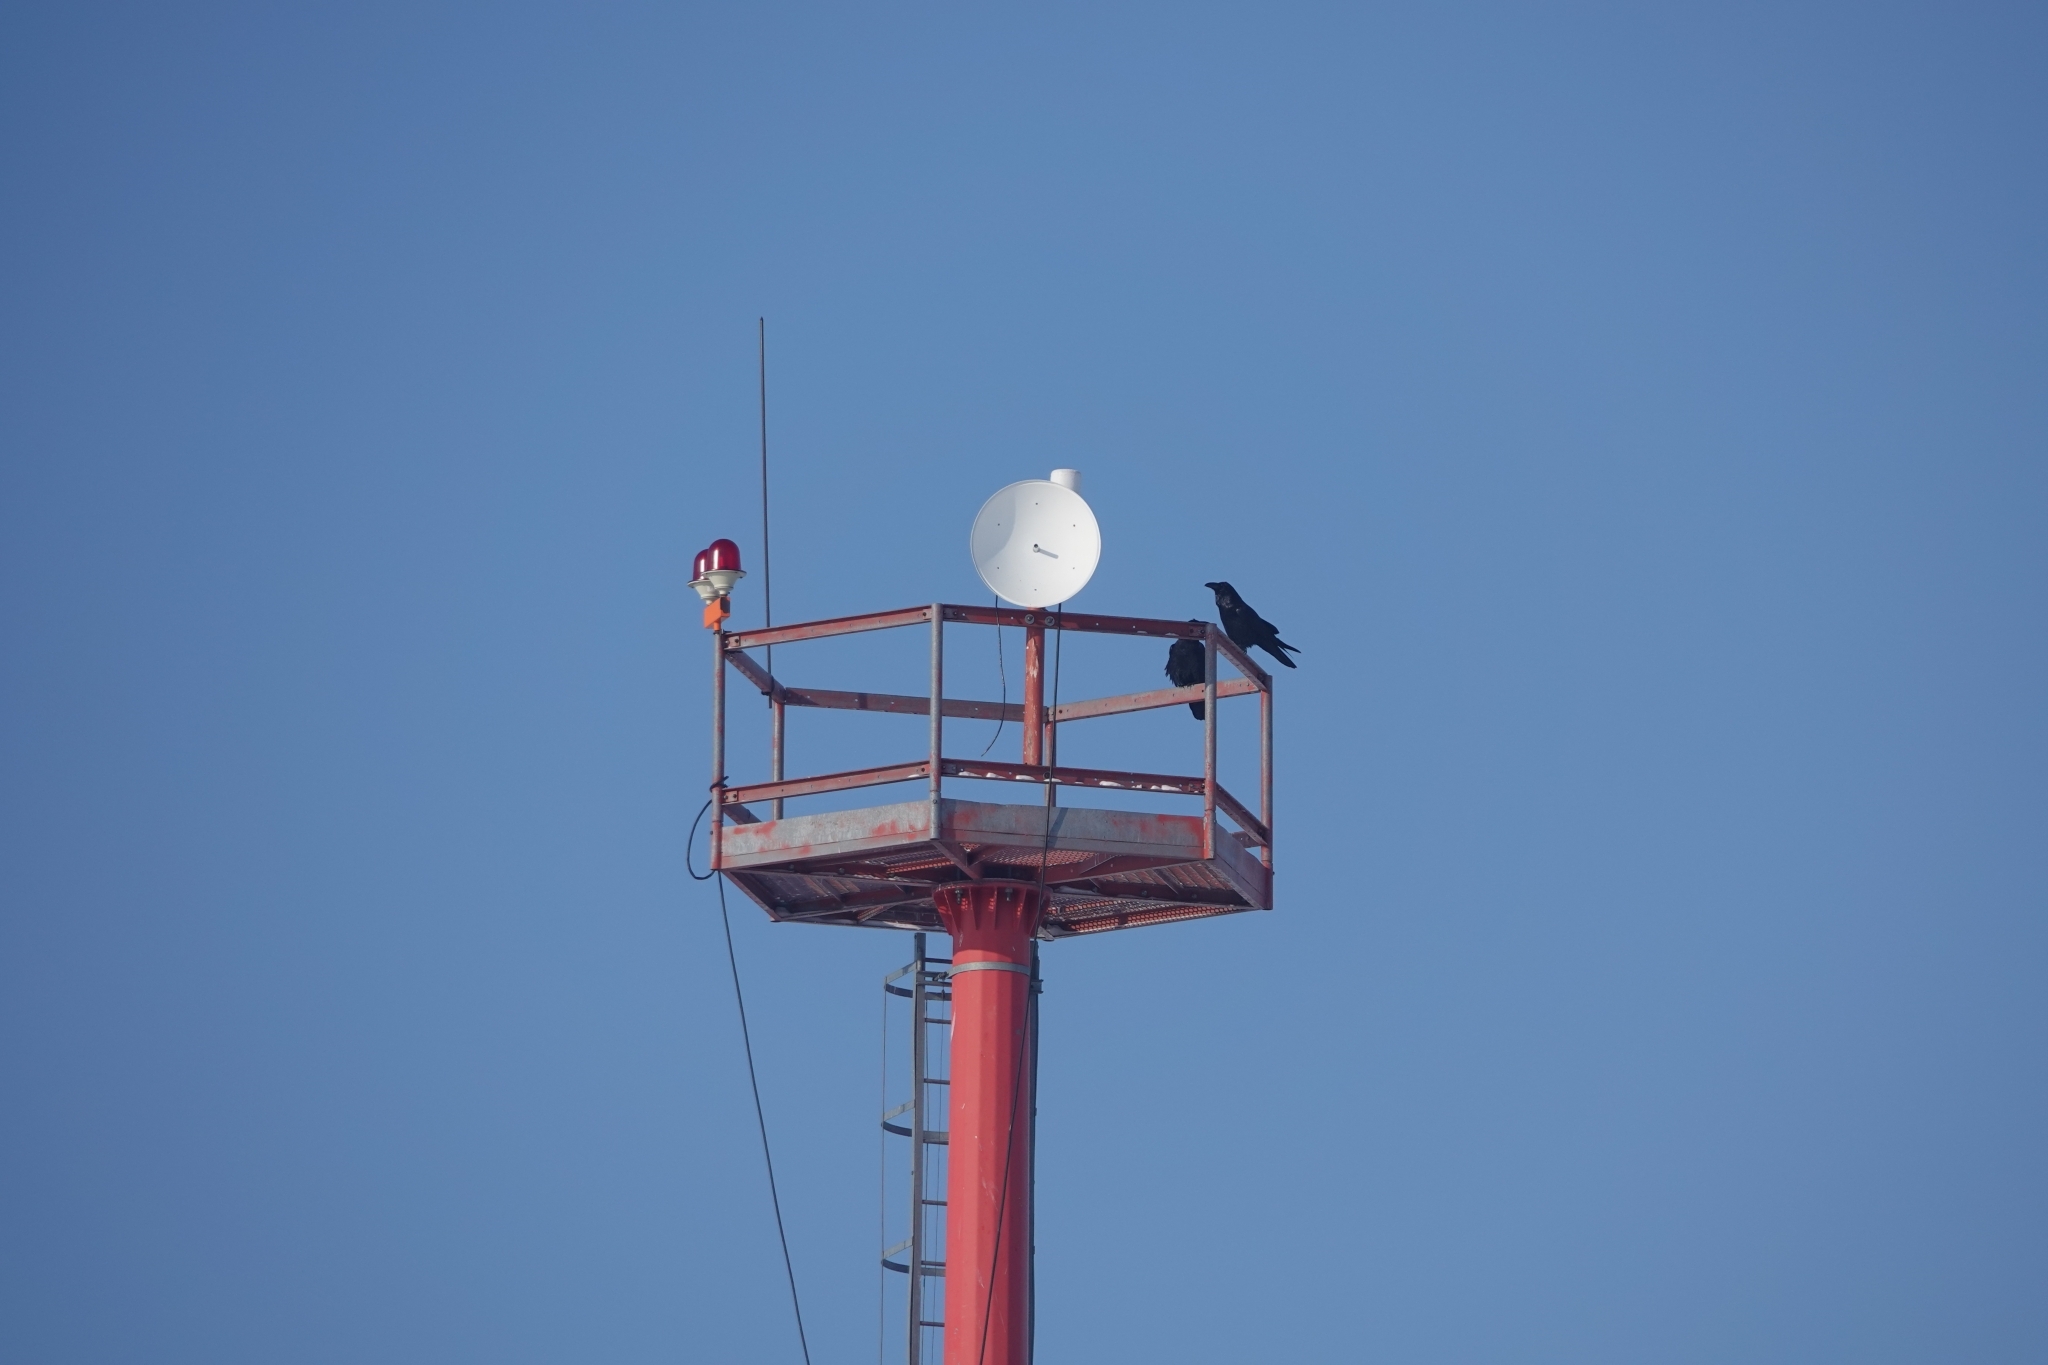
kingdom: Animalia
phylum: Chordata
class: Aves
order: Passeriformes
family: Corvidae
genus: Corvus
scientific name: Corvus corax
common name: Common raven
